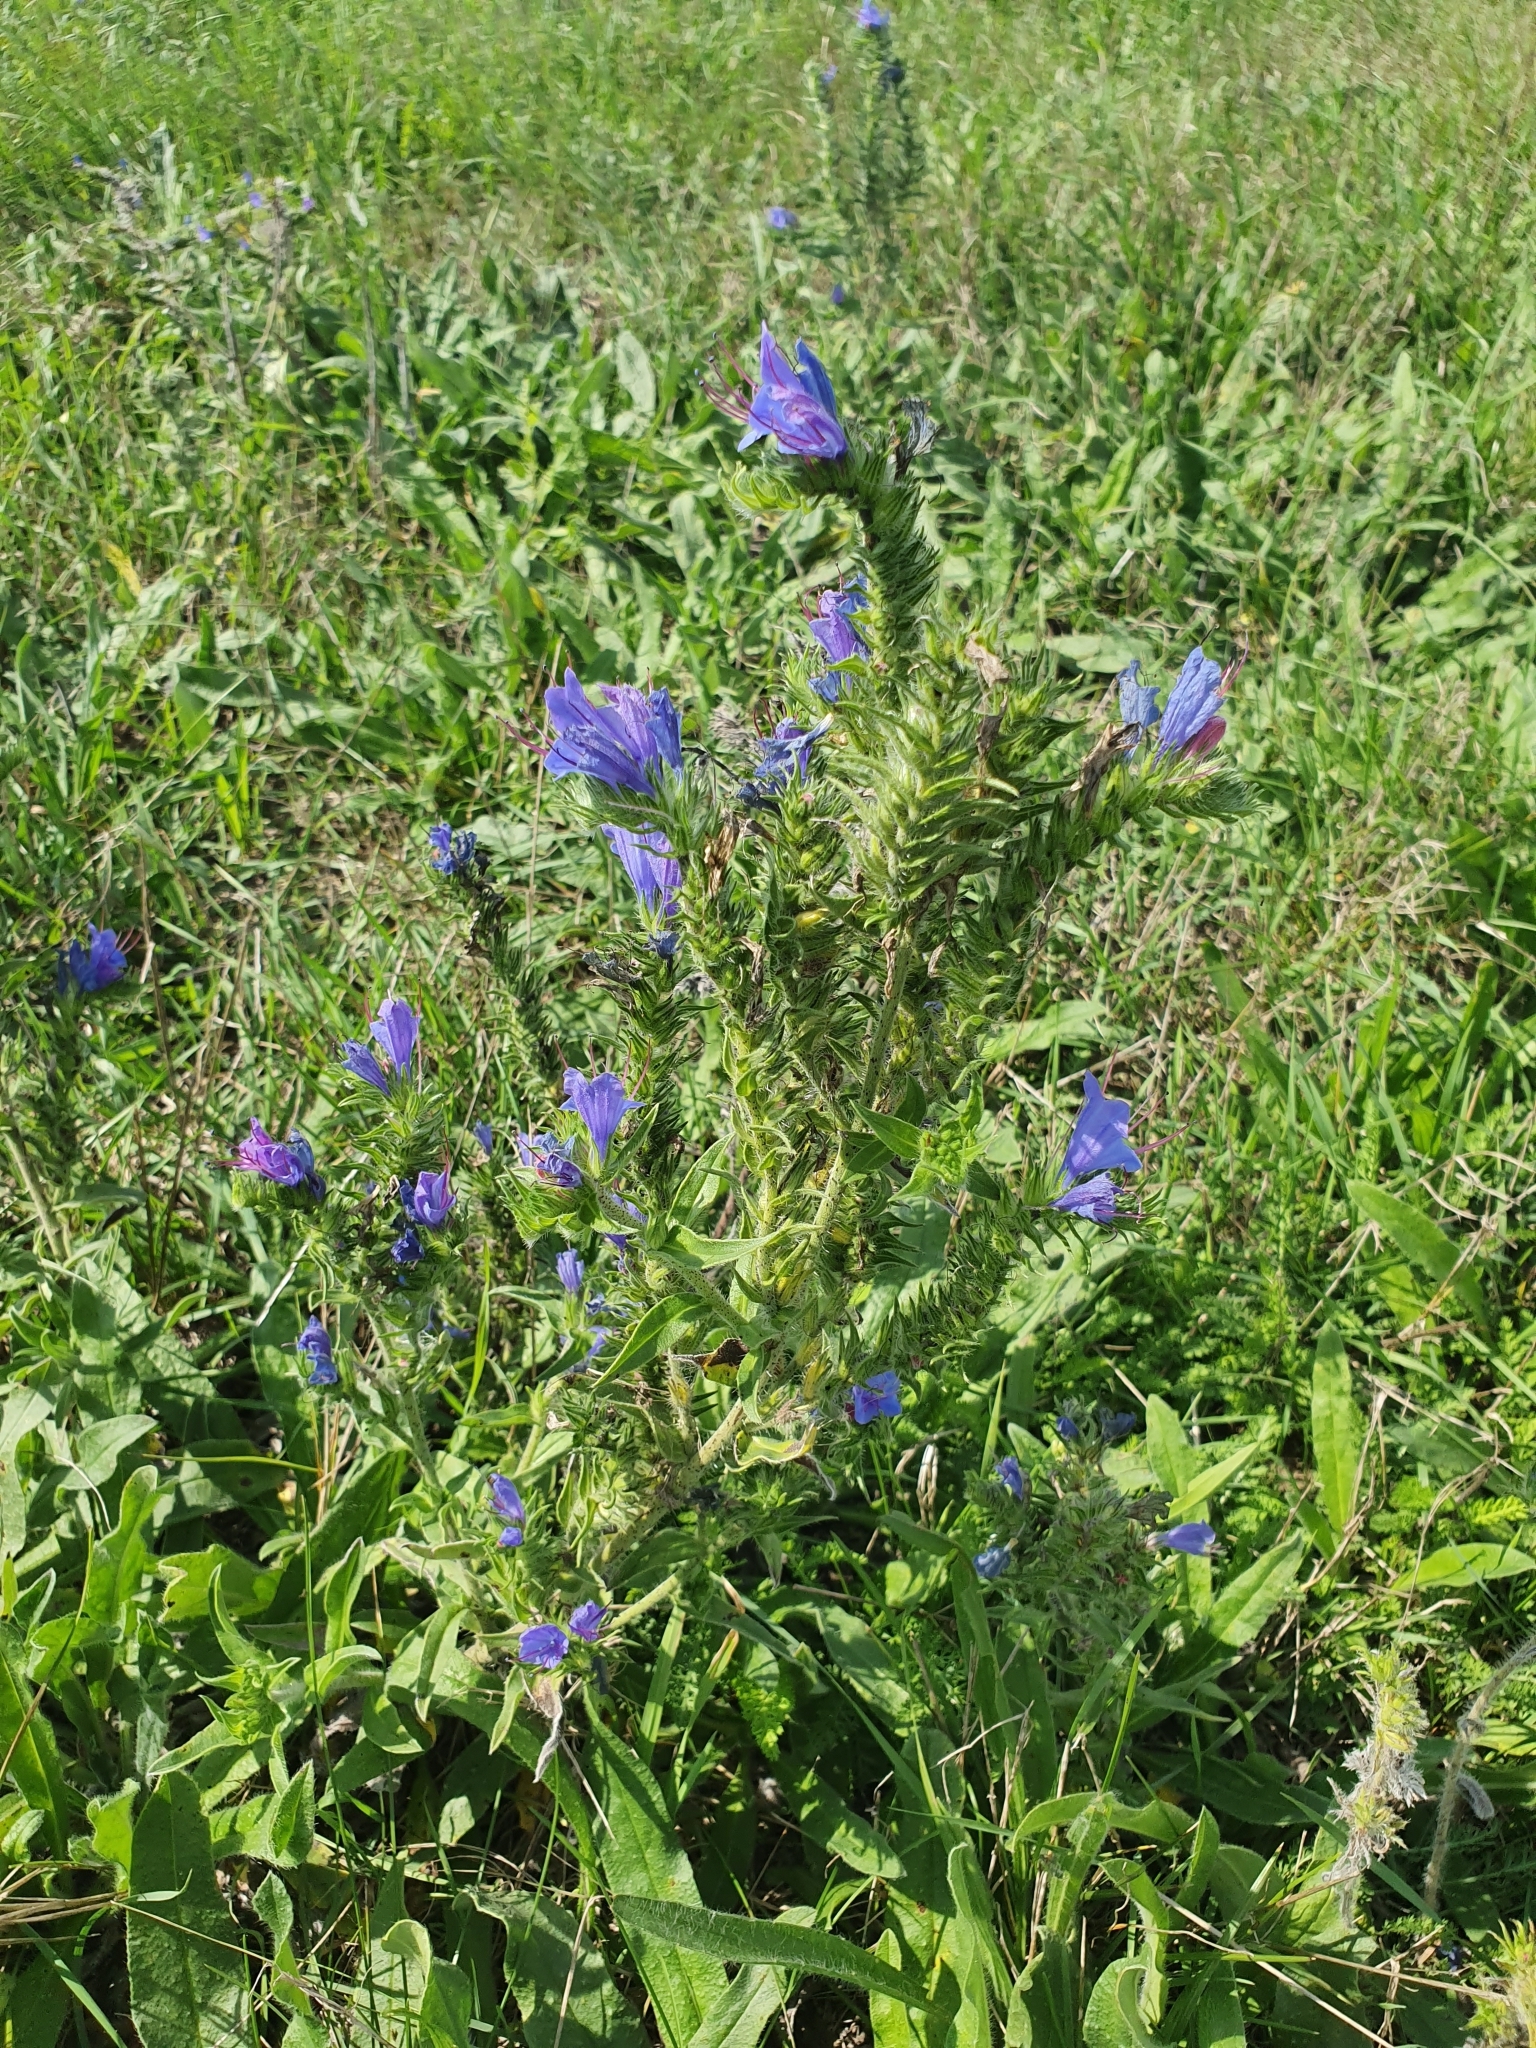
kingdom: Plantae
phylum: Tracheophyta
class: Magnoliopsida
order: Boraginales
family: Boraginaceae
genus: Echium
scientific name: Echium vulgare
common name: Common viper's bugloss
